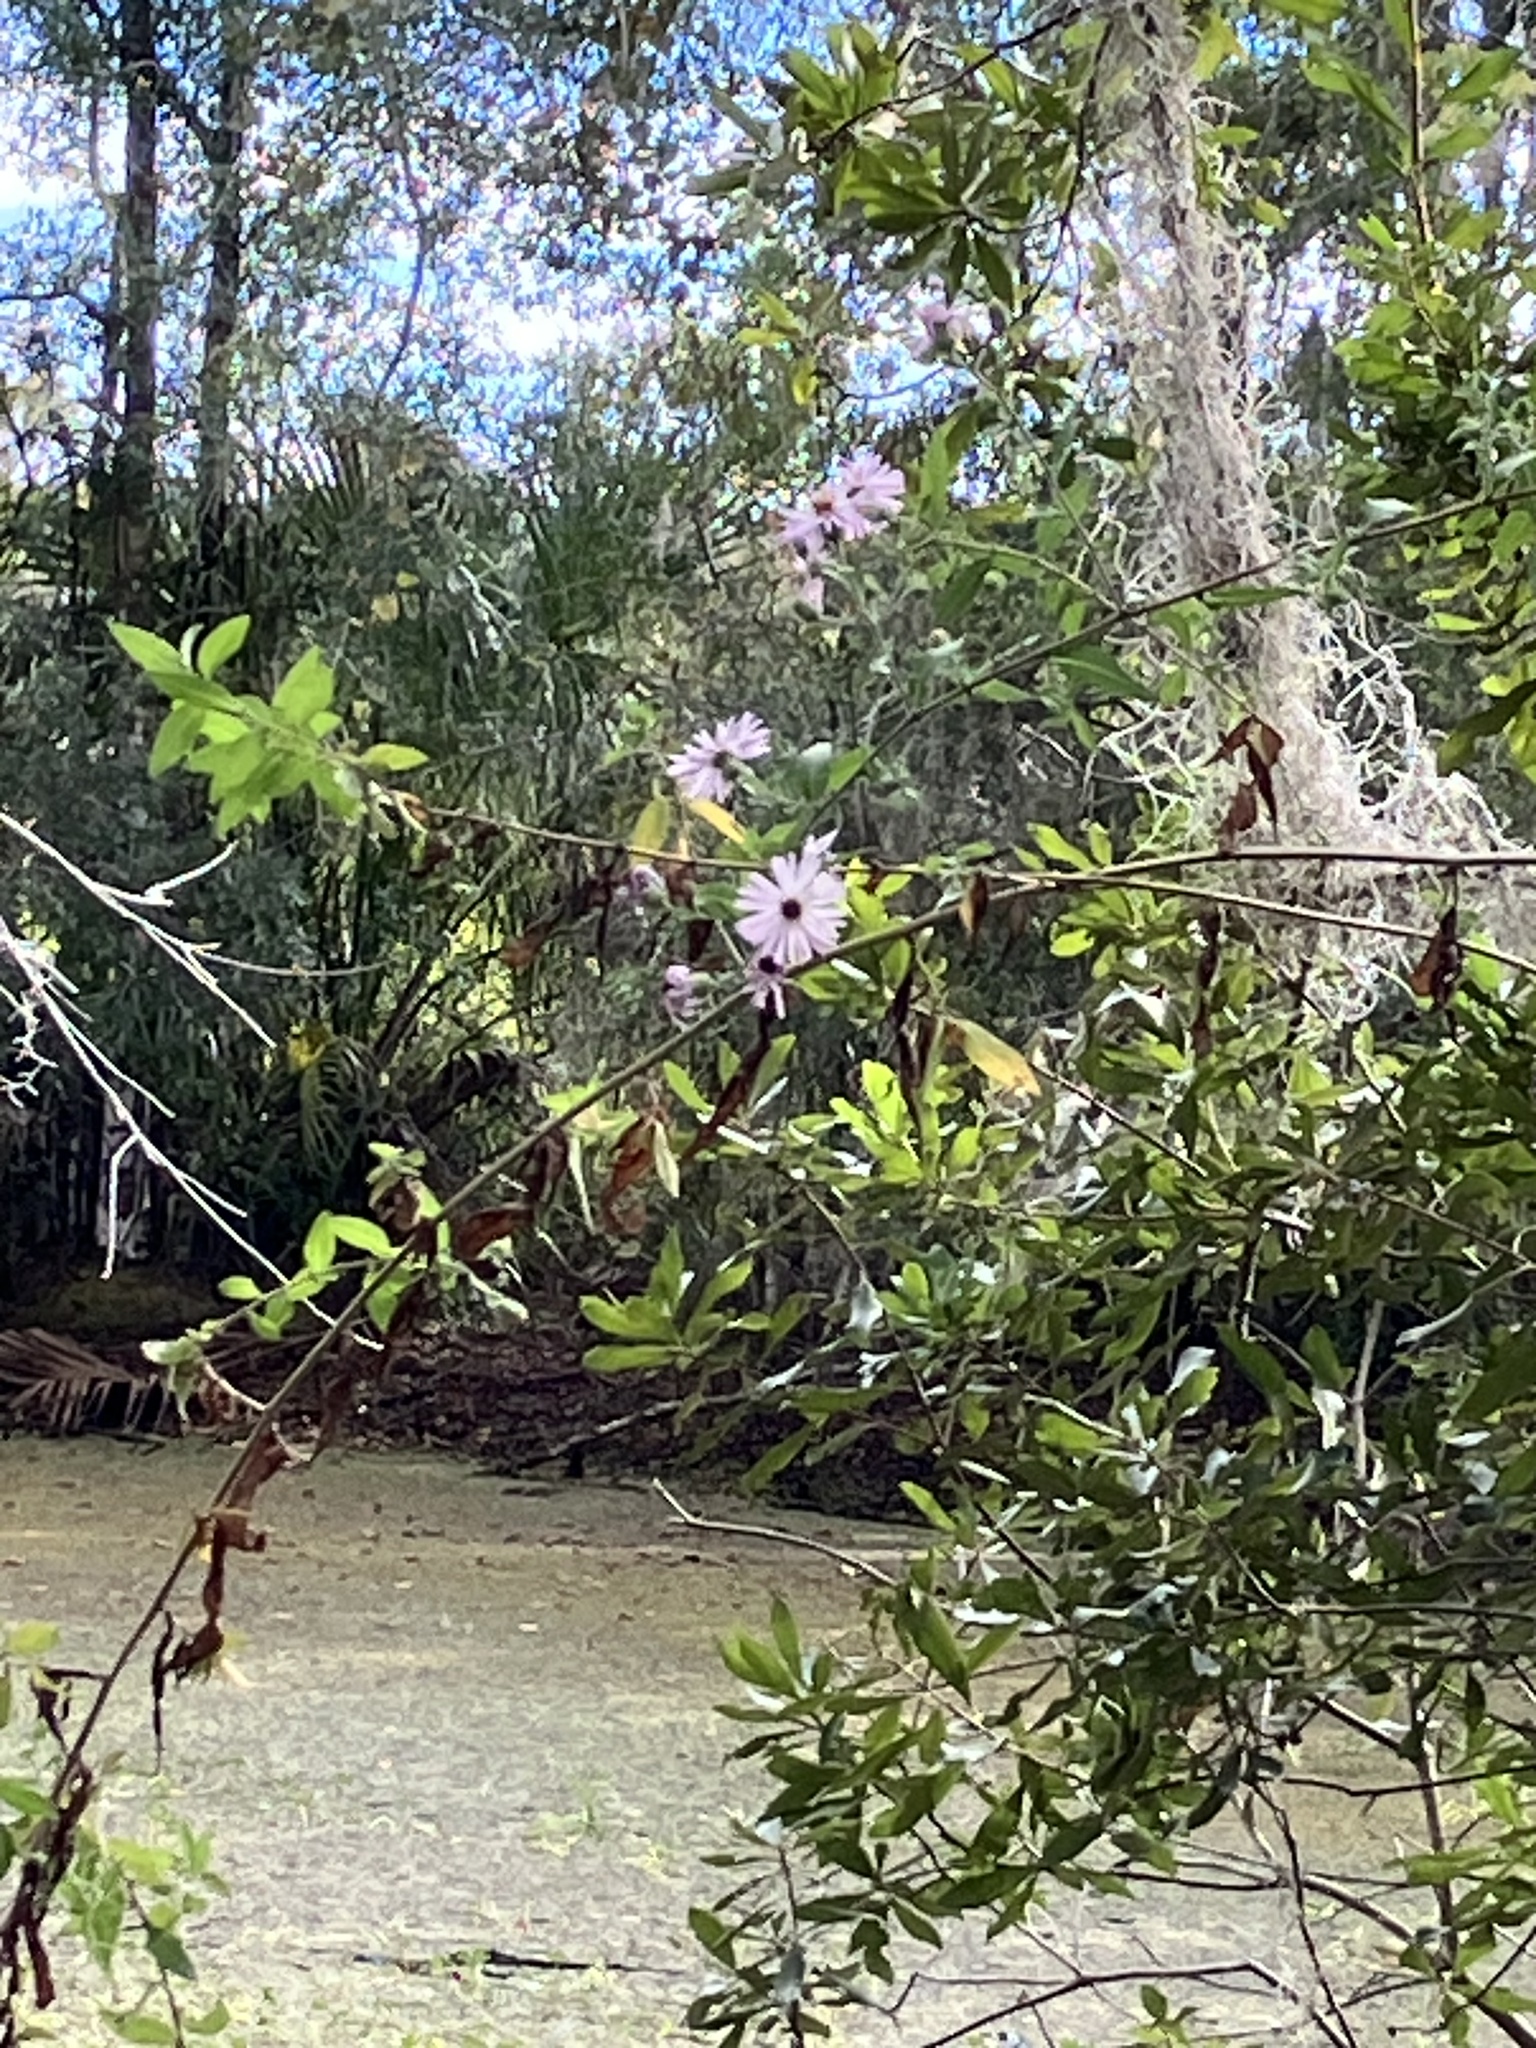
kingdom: Plantae
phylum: Tracheophyta
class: Magnoliopsida
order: Asterales
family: Asteraceae
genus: Ampelaster
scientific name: Ampelaster carolinianus
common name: Climbing aster
